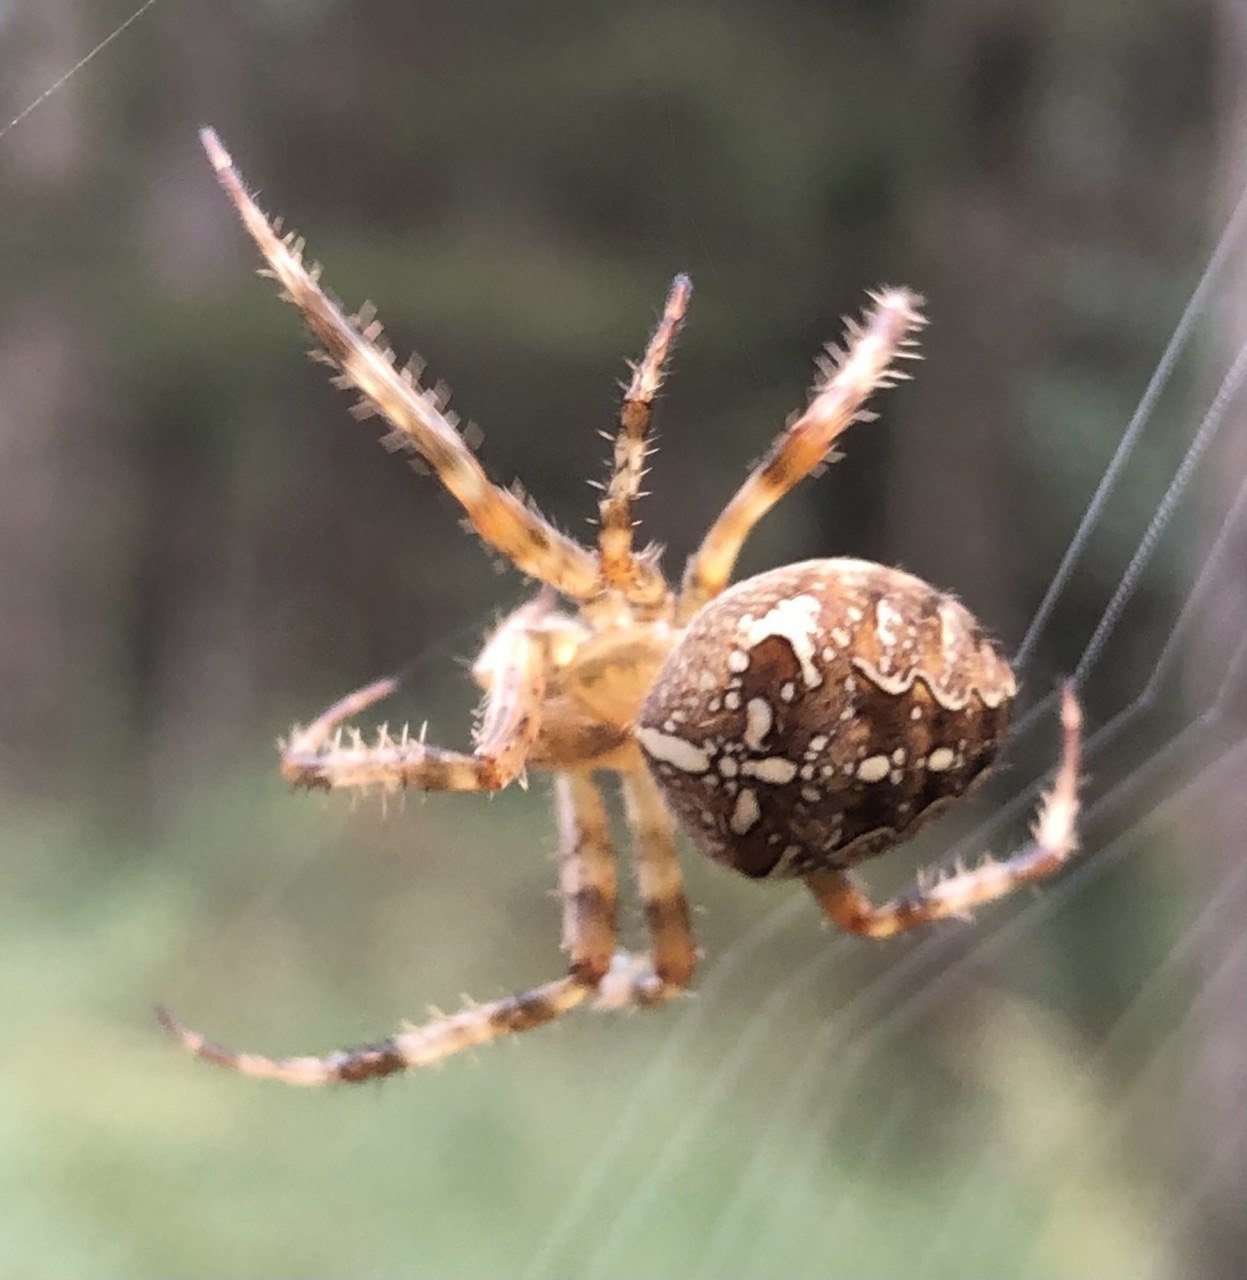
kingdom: Animalia
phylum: Arthropoda
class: Arachnida
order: Araneae
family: Araneidae
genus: Araneus
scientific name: Araneus diadematus
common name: Cross orbweaver
